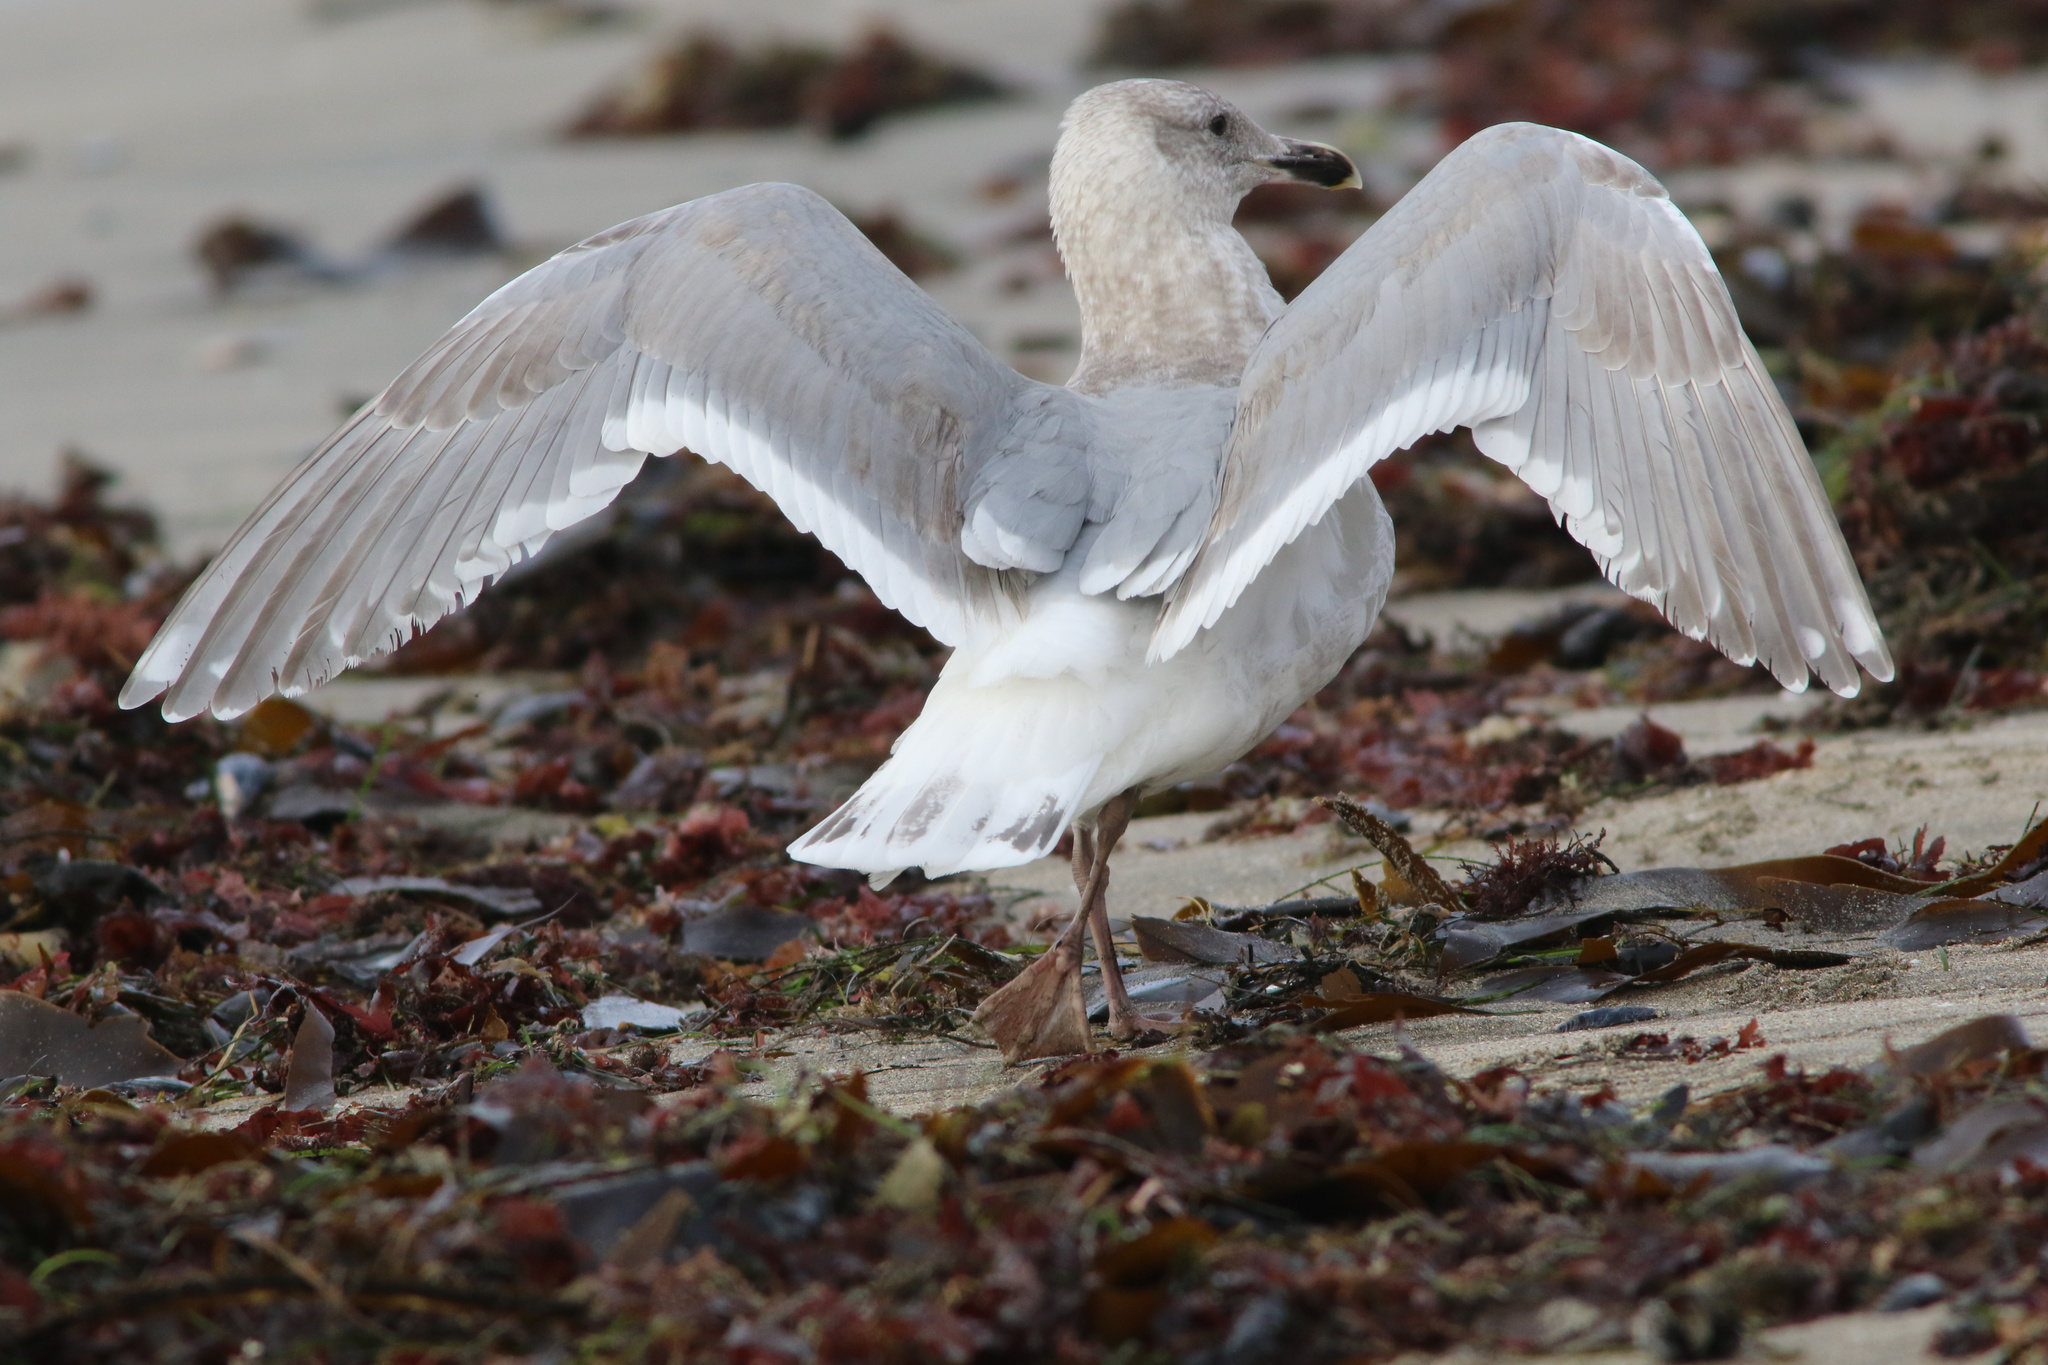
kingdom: Animalia
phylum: Chordata
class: Aves
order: Charadriiformes
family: Laridae
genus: Larus
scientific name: Larus glaucescens
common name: Glaucous-winged gull
